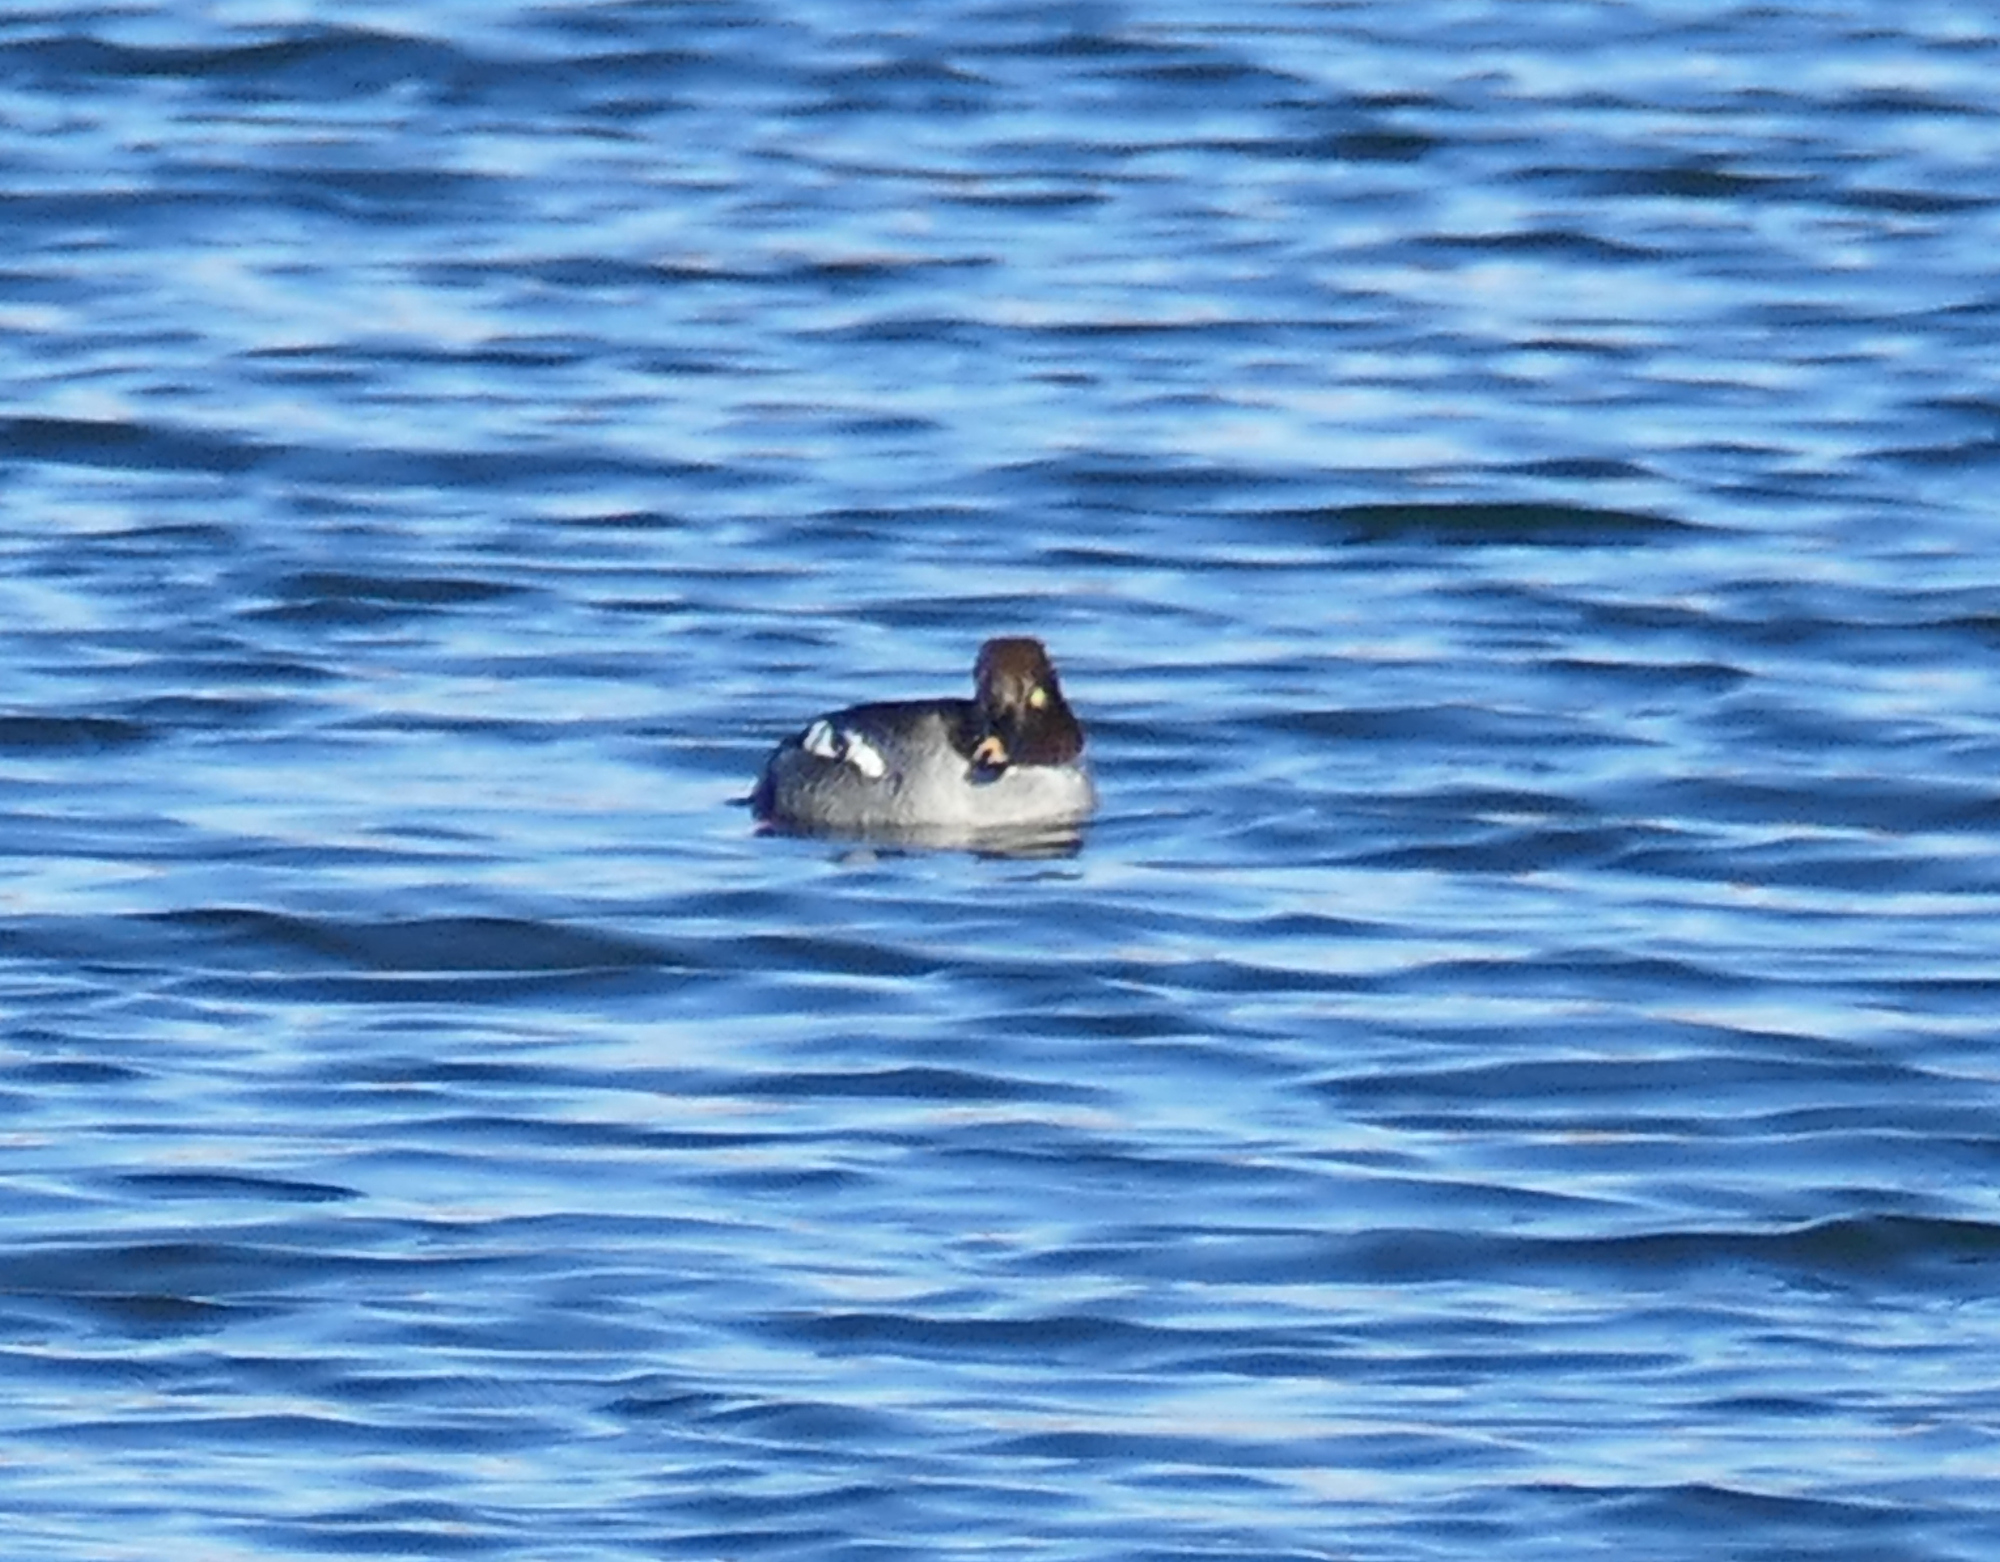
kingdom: Animalia
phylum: Chordata
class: Aves
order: Anseriformes
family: Anatidae
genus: Bucephala
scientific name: Bucephala clangula
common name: Common goldeneye
